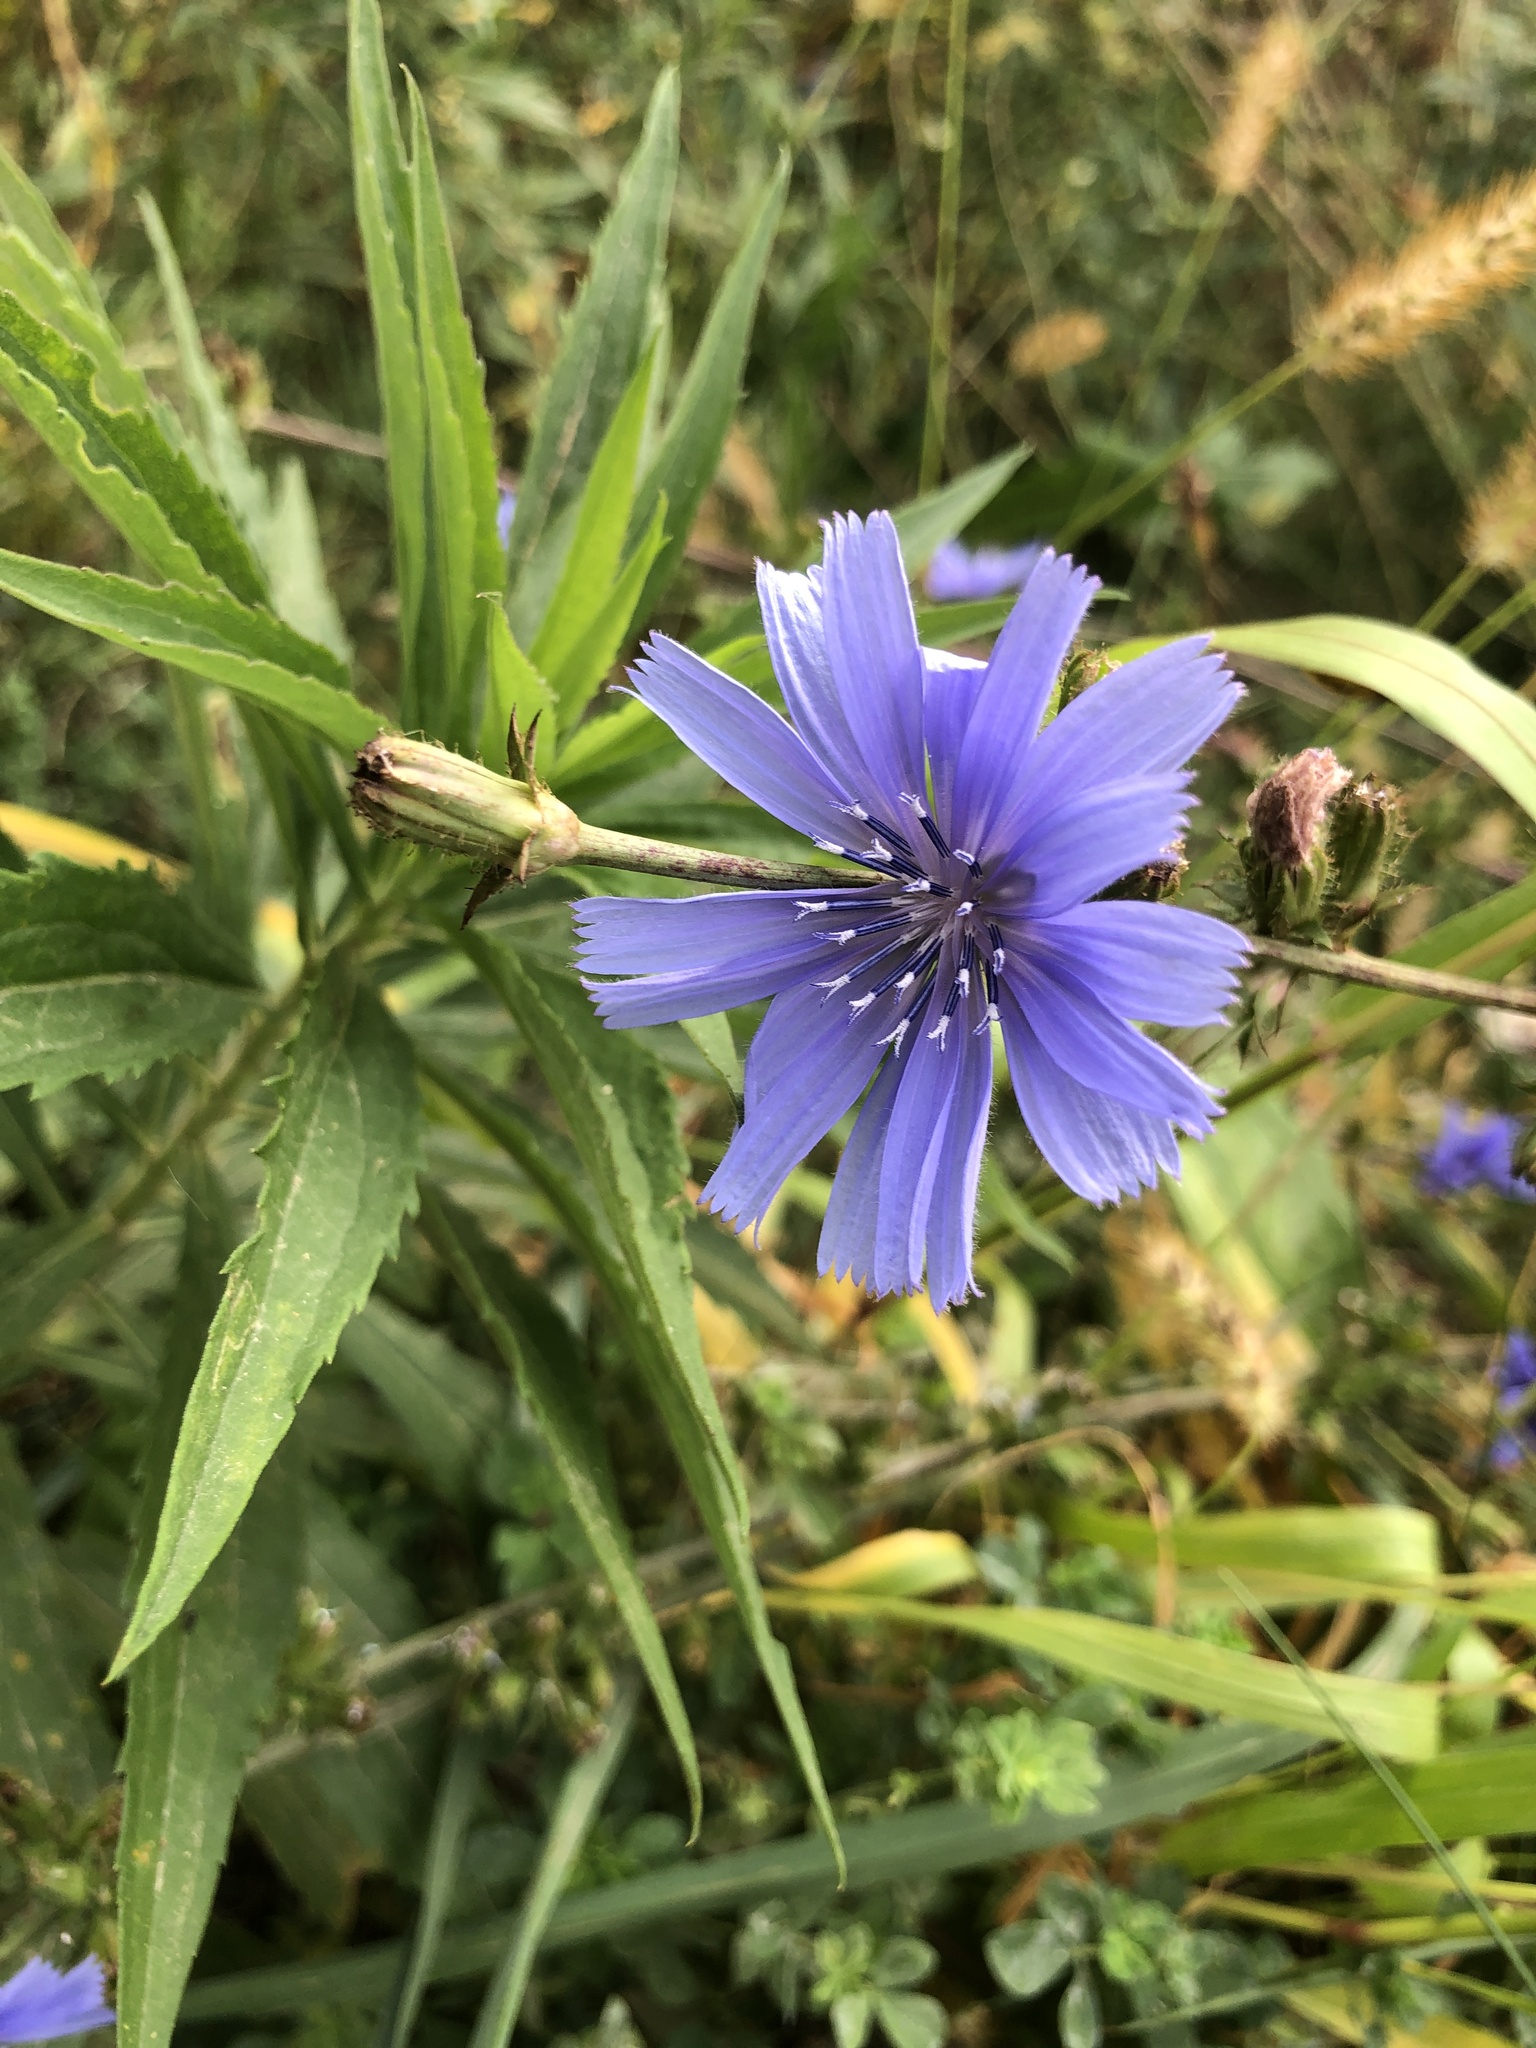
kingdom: Plantae
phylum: Tracheophyta
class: Magnoliopsida
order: Asterales
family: Asteraceae
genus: Cichorium
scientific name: Cichorium intybus
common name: Chicory
